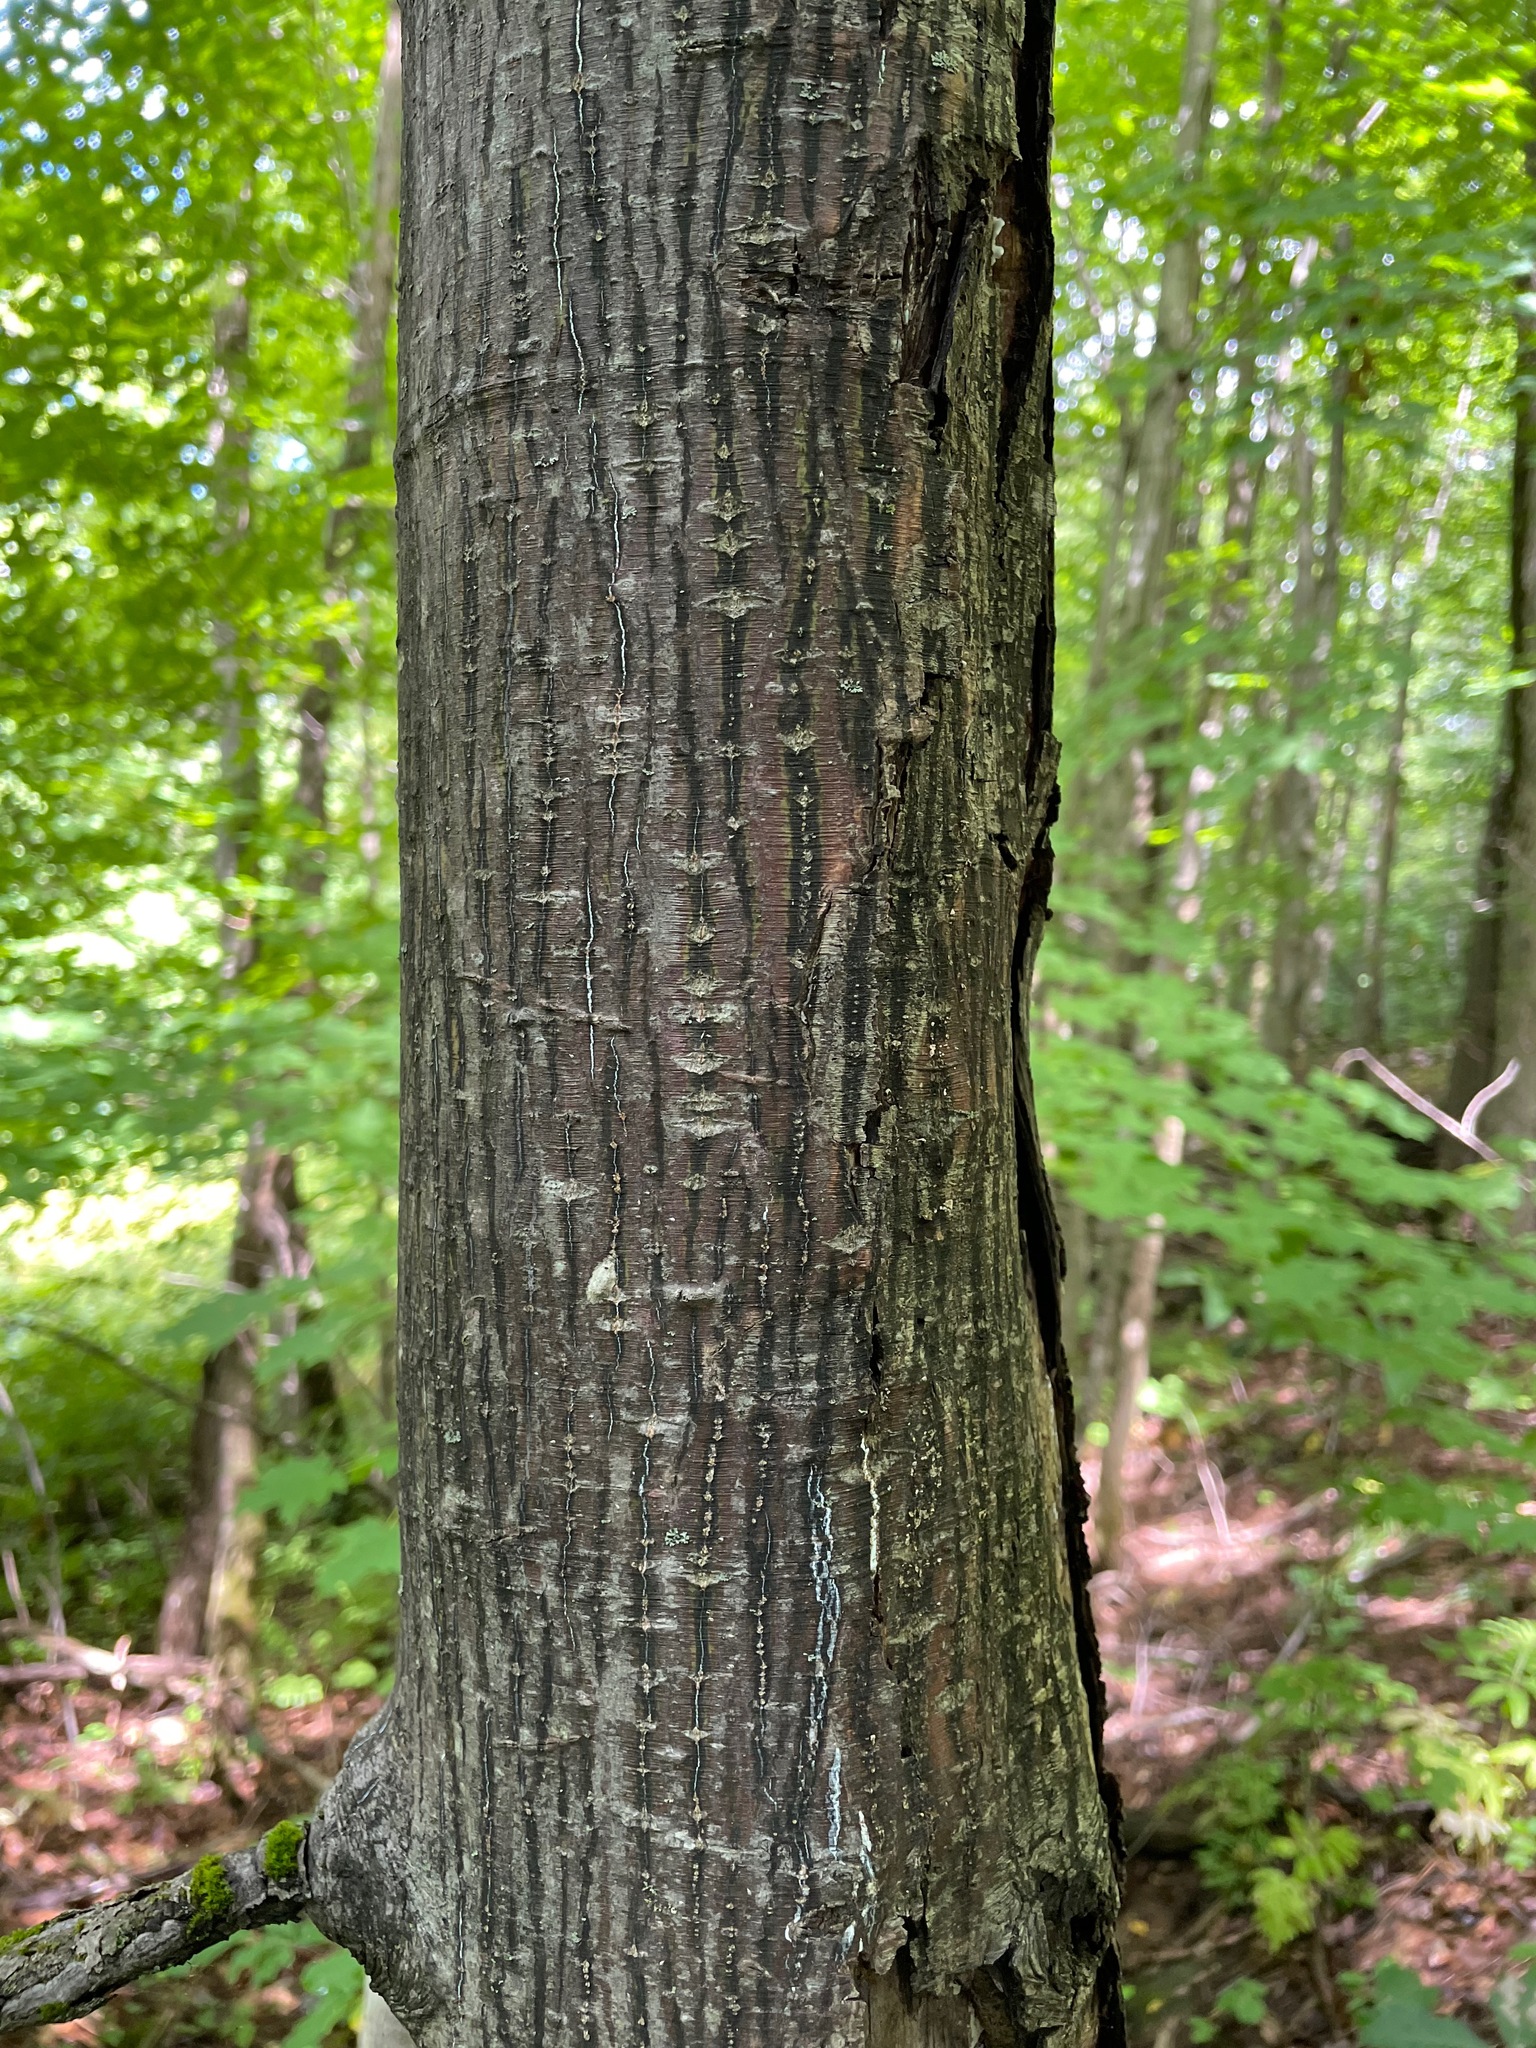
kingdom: Plantae
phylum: Tracheophyta
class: Magnoliopsida
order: Sapindales
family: Sapindaceae
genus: Acer
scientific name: Acer pensylvanicum
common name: Moosewood
